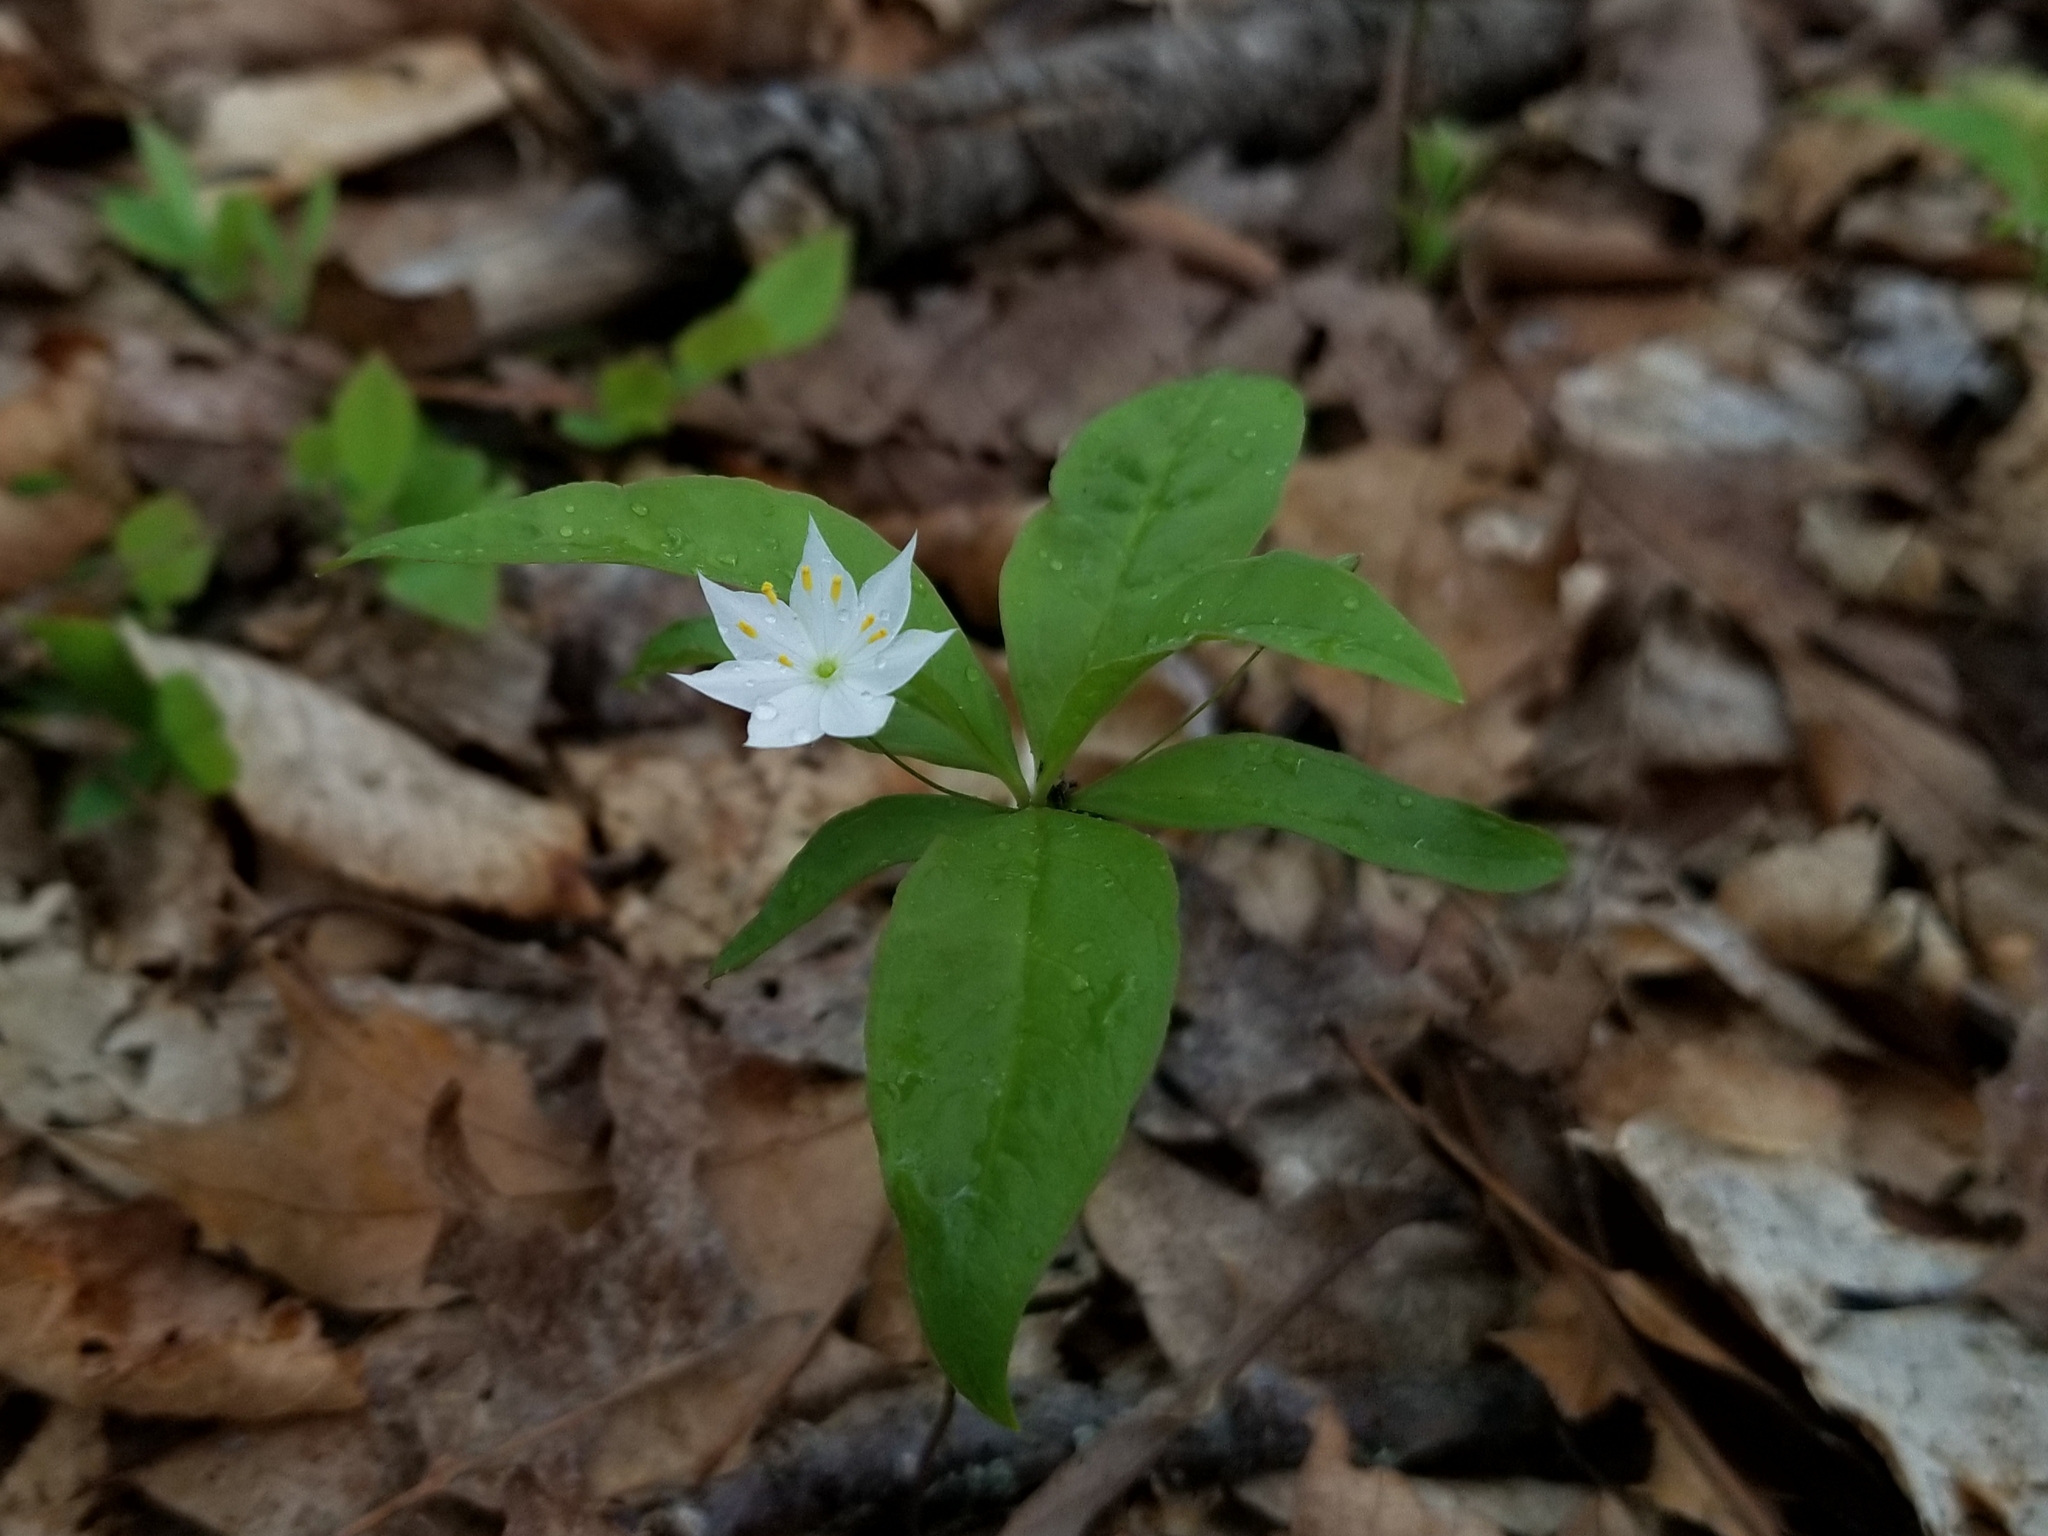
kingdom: Plantae
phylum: Tracheophyta
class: Magnoliopsida
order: Ericales
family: Primulaceae
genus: Lysimachia
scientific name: Lysimachia borealis
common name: American starflower
